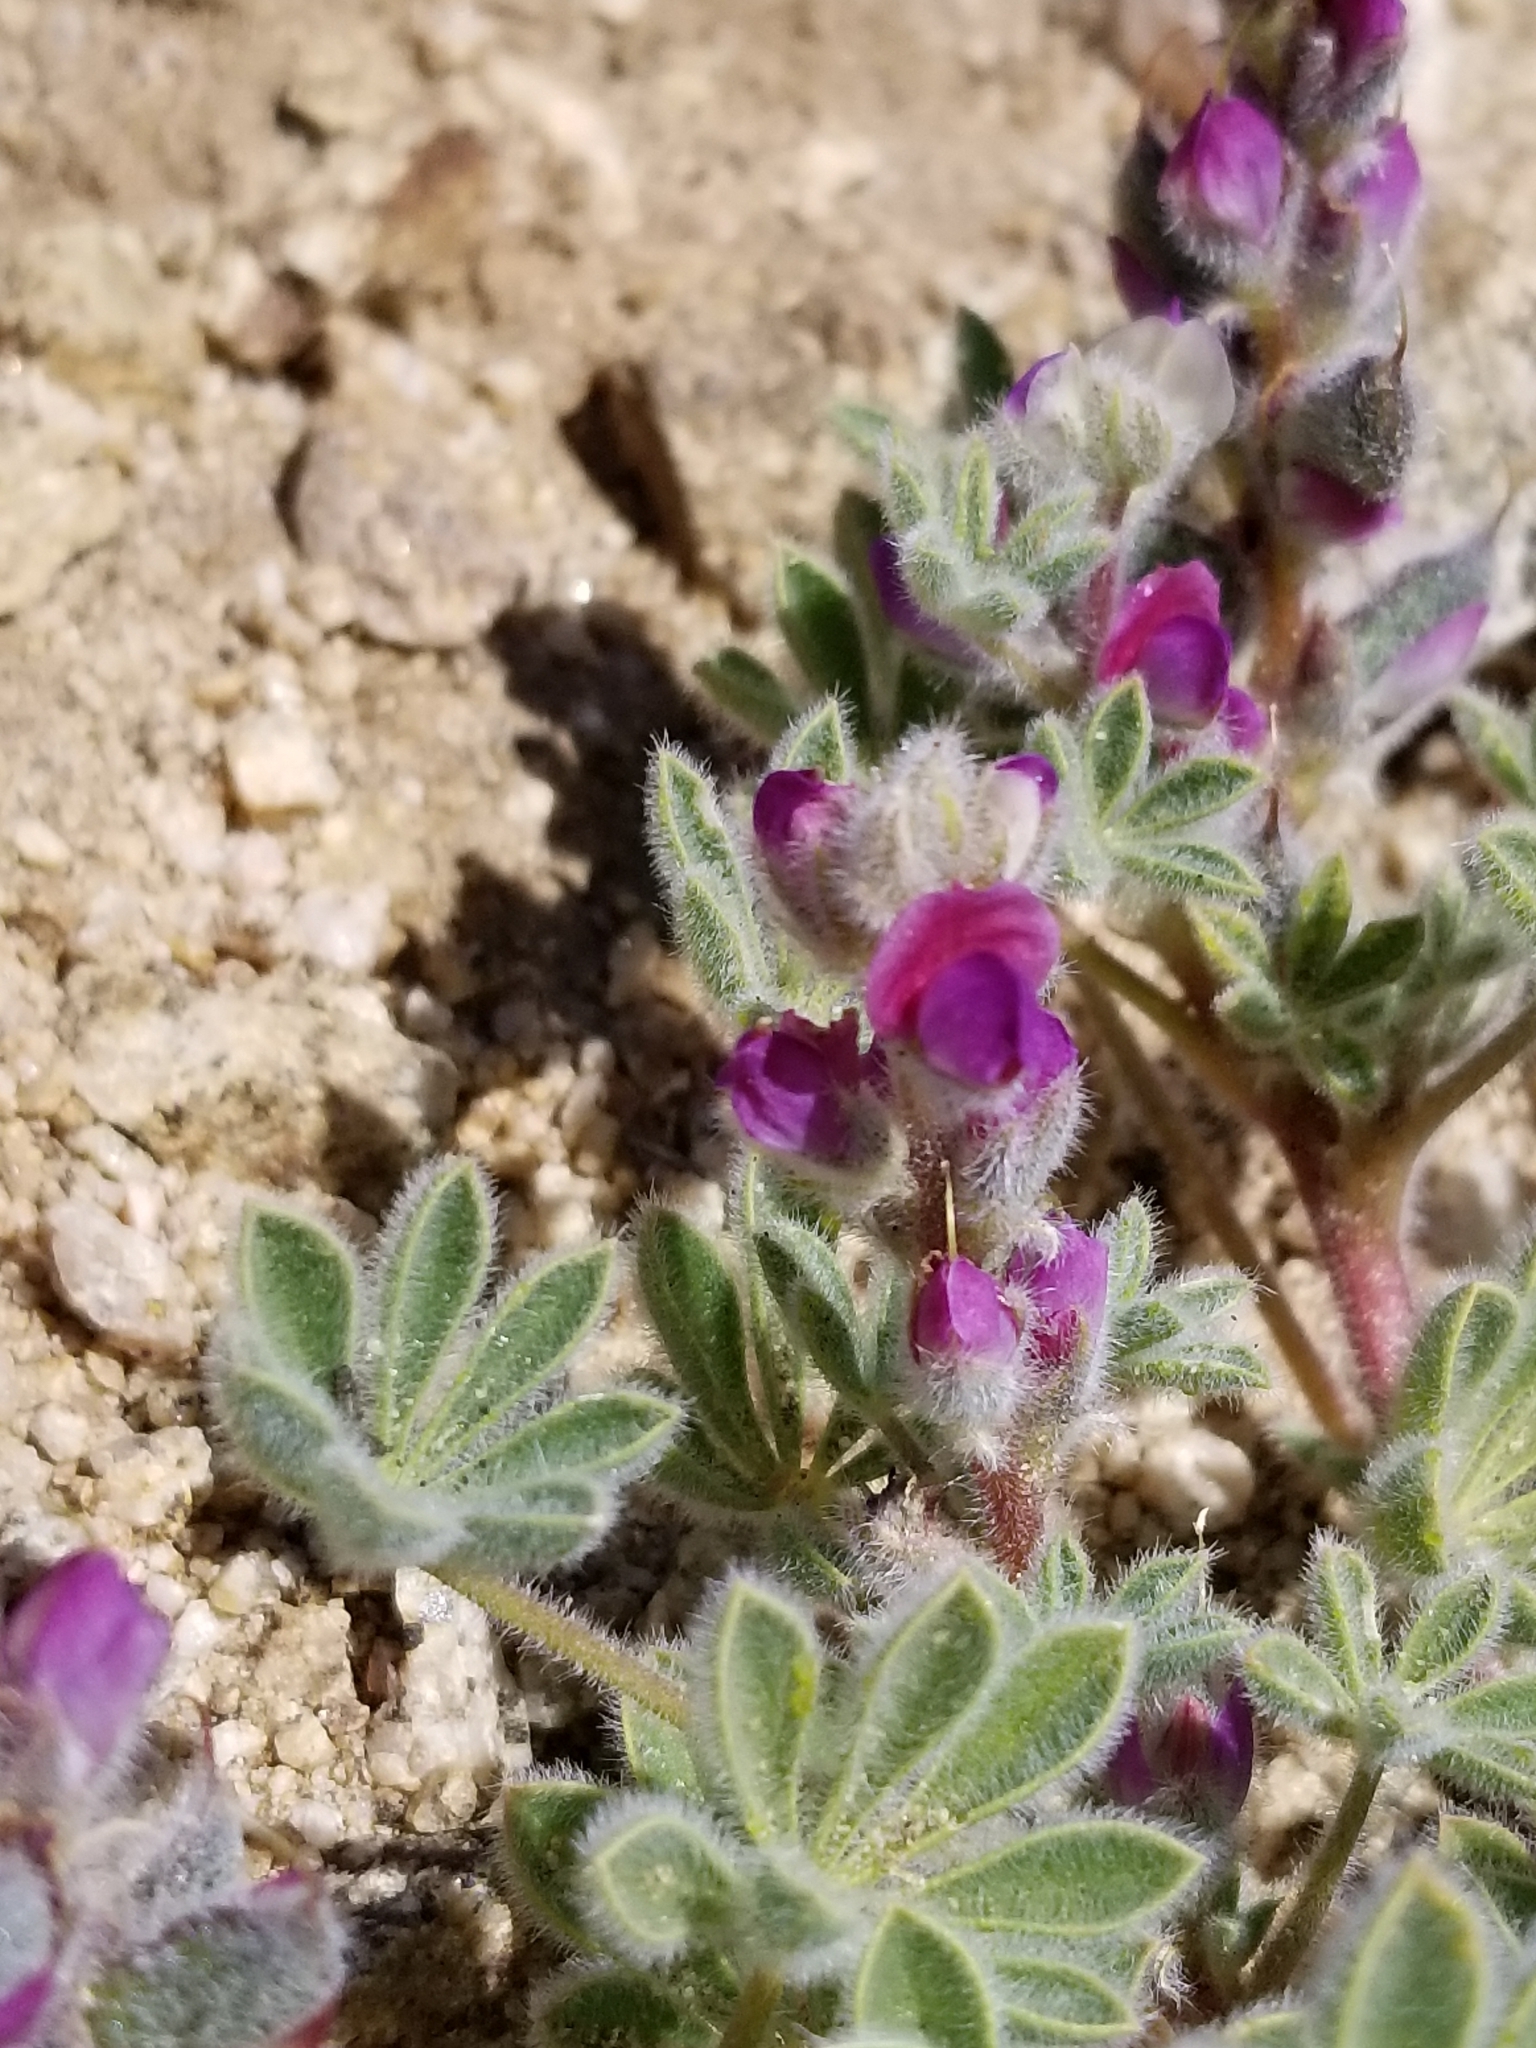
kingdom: Plantae
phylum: Tracheophyta
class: Magnoliopsida
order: Fabales
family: Fabaceae
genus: Lupinus
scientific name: Lupinus concinnus
